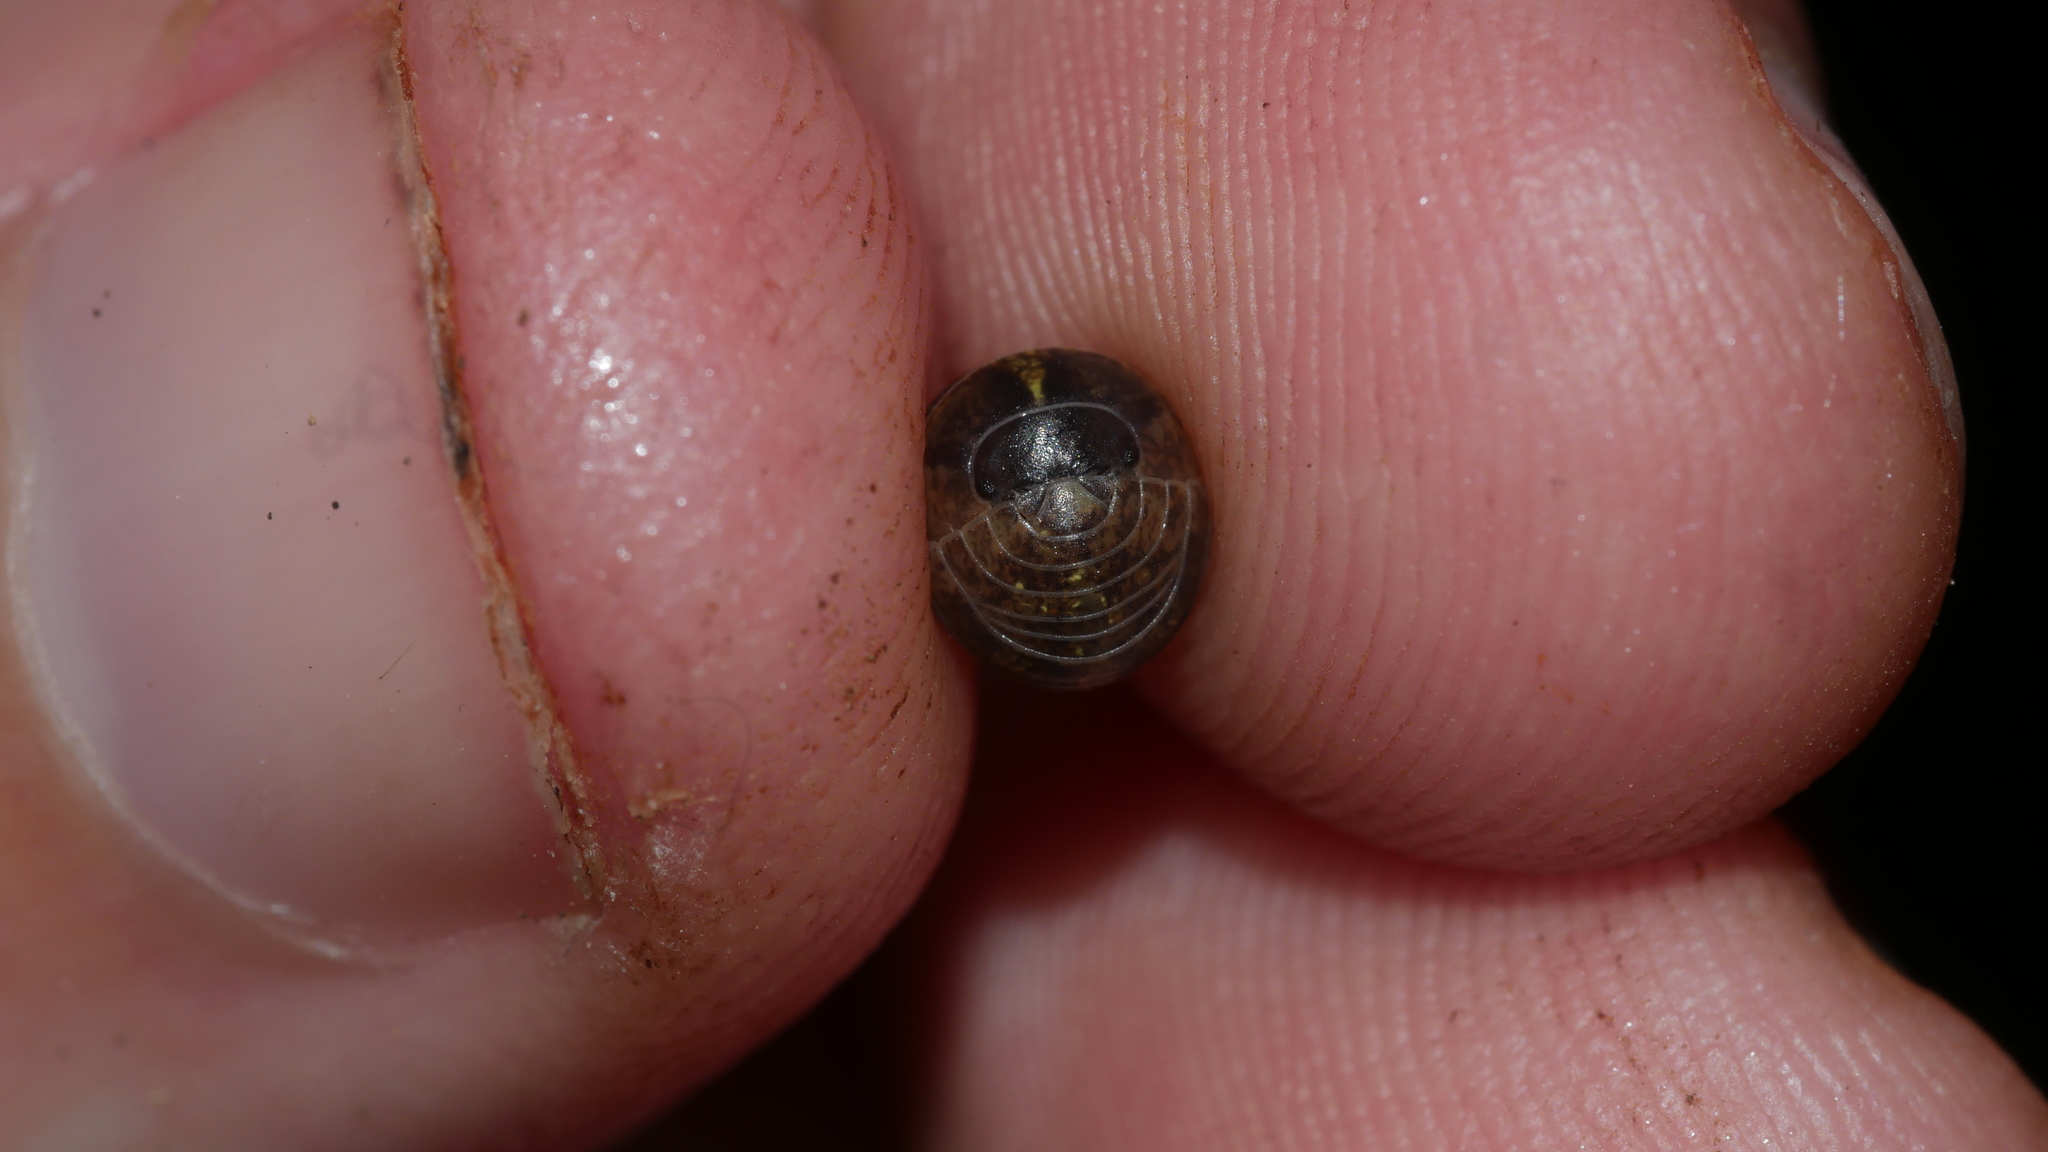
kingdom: Animalia
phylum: Arthropoda
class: Malacostraca
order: Isopoda
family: Armadillidiidae
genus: Armadillidium
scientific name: Armadillidium vulgare
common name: Common pill woodlouse
